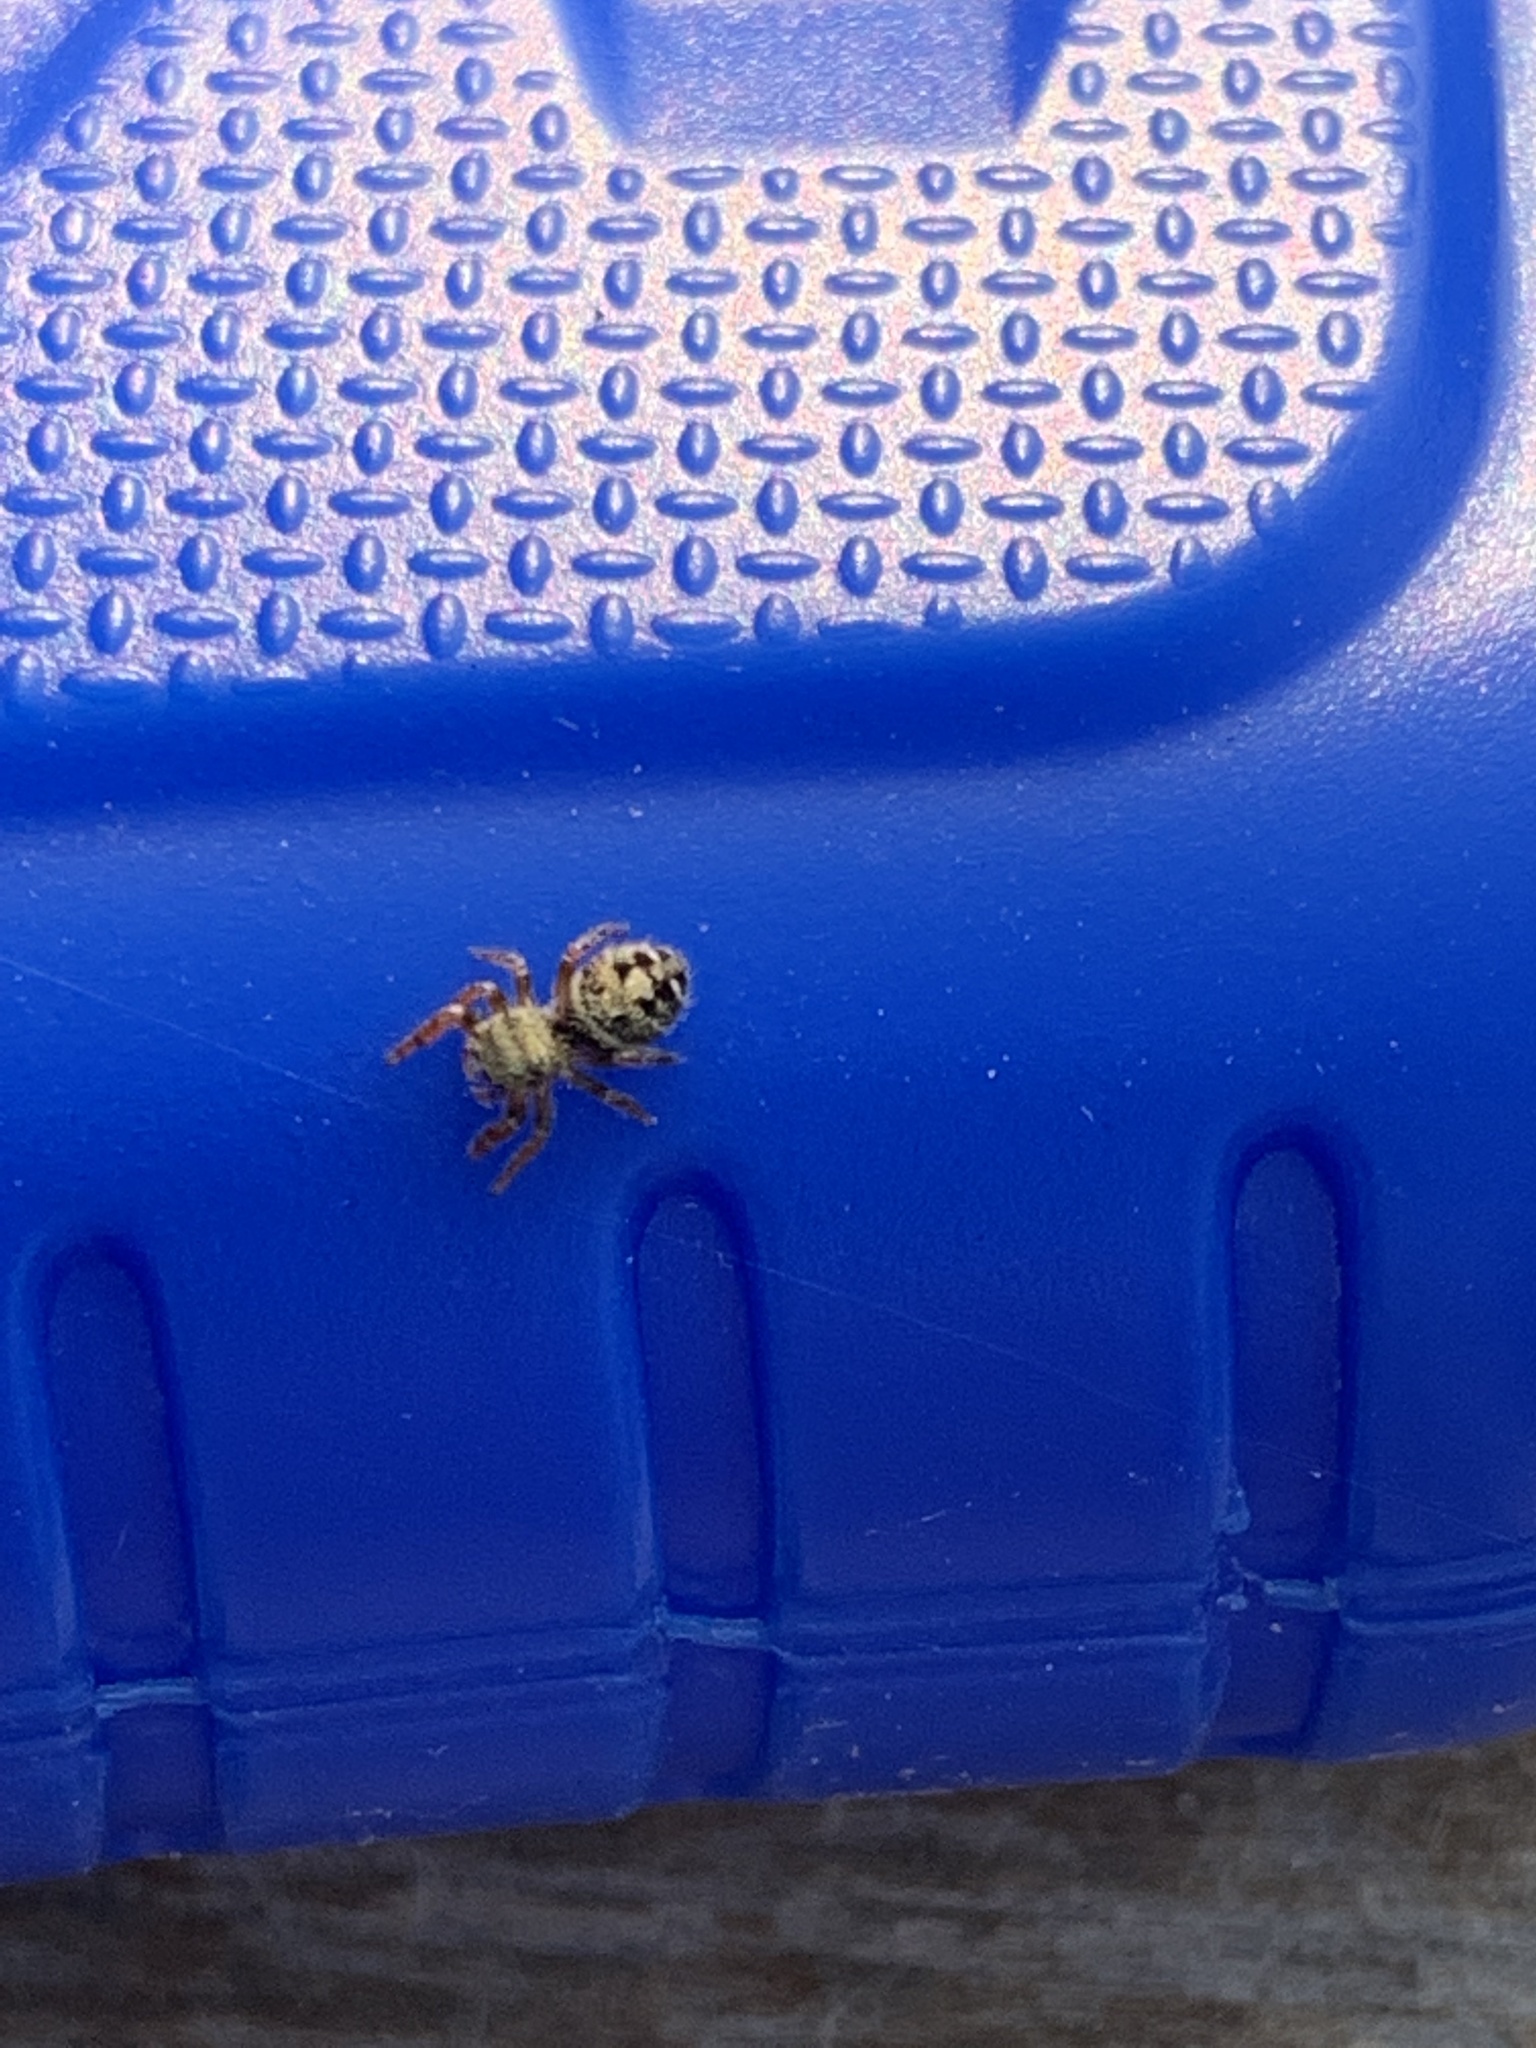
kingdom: Animalia
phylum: Arthropoda
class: Arachnida
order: Araneae
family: Salticidae
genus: Phidippus
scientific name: Phidippus audax
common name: Bold jumper
